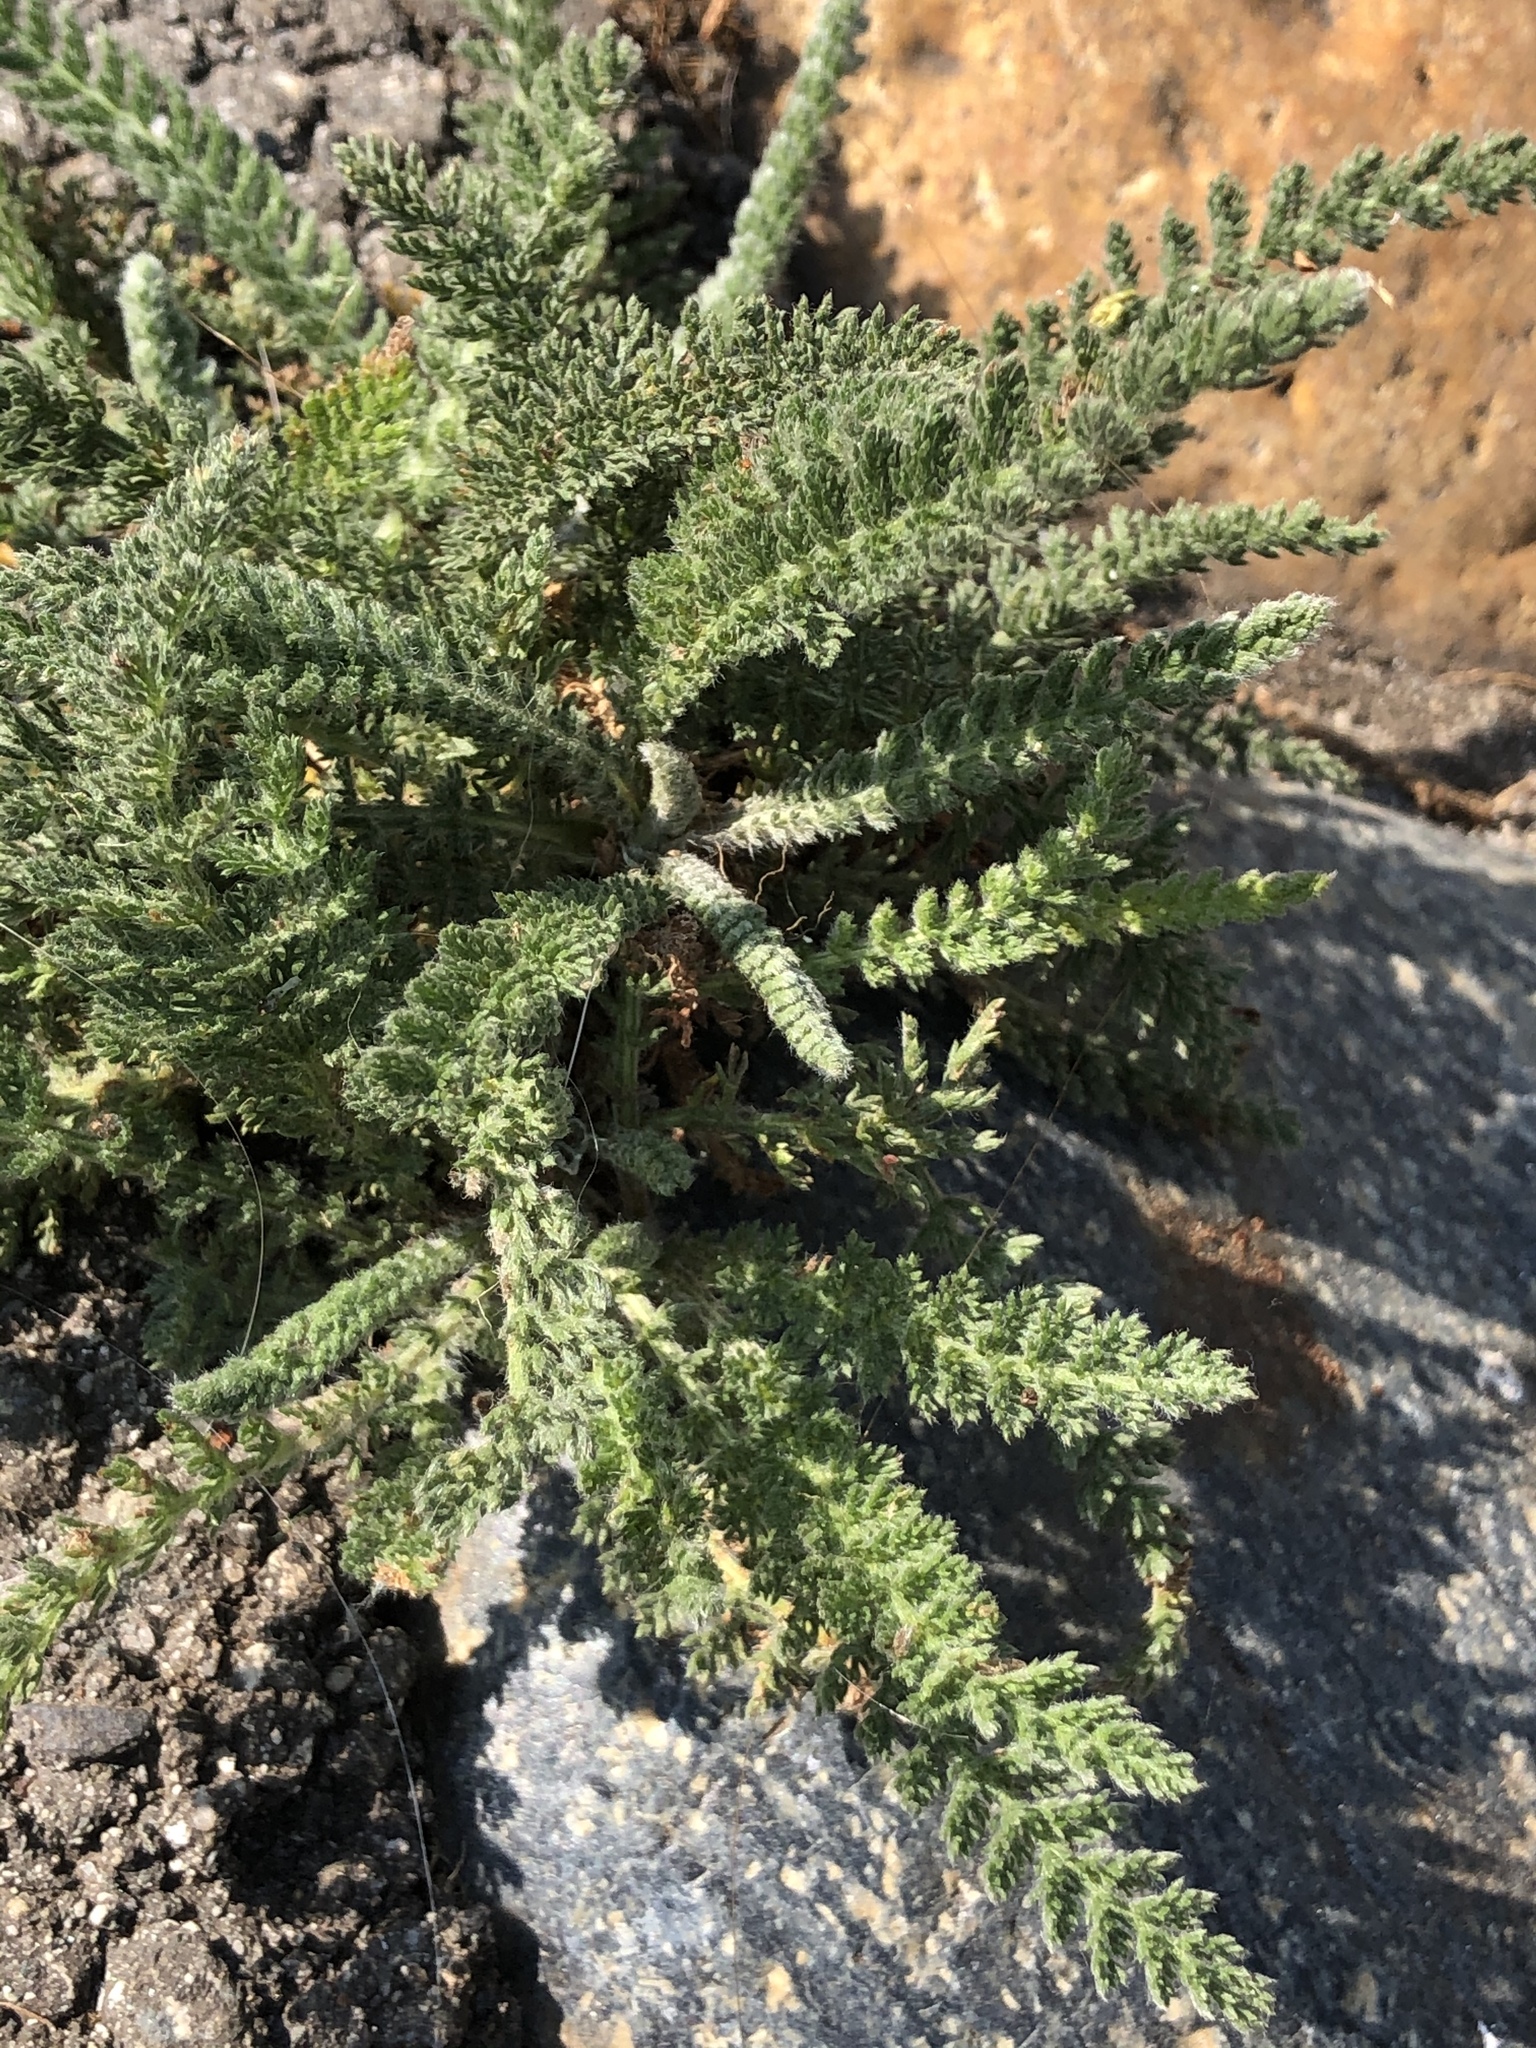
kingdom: Plantae
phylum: Tracheophyta
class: Magnoliopsida
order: Asterales
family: Asteraceae
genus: Achillea
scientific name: Achillea millefolium
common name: Yarrow
